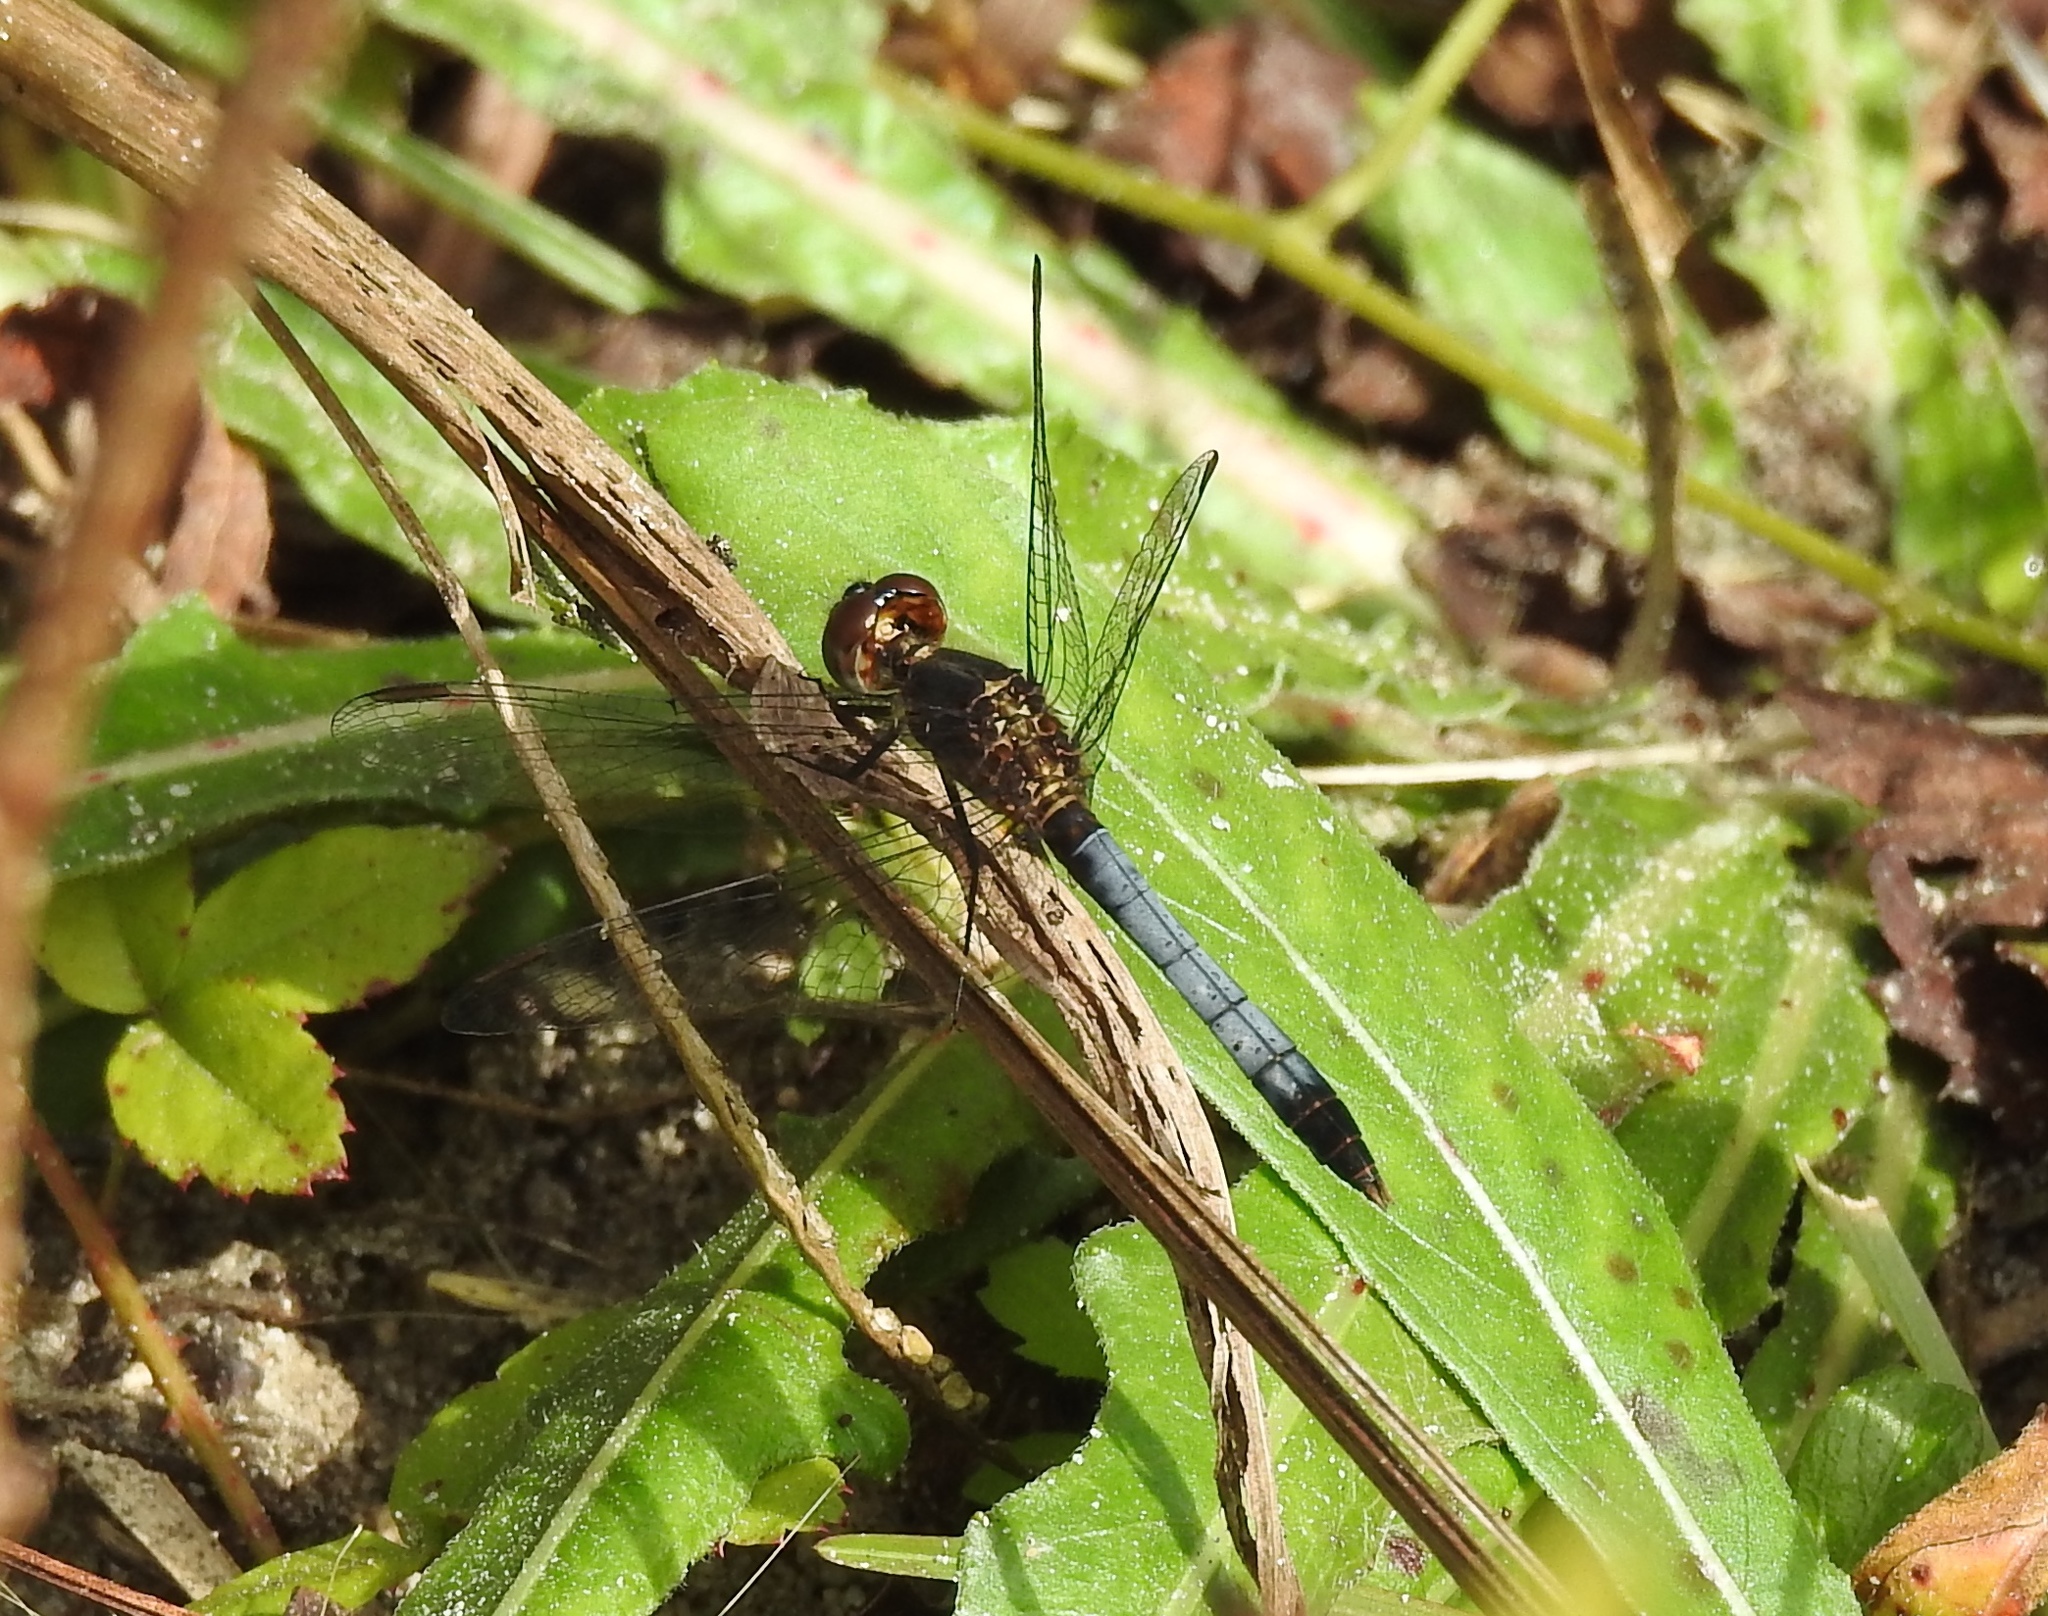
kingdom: Animalia
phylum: Arthropoda
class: Insecta
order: Odonata
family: Libellulidae
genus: Erythrodiplax
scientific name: Erythrodiplax minuscula
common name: Little blue dragonlet
